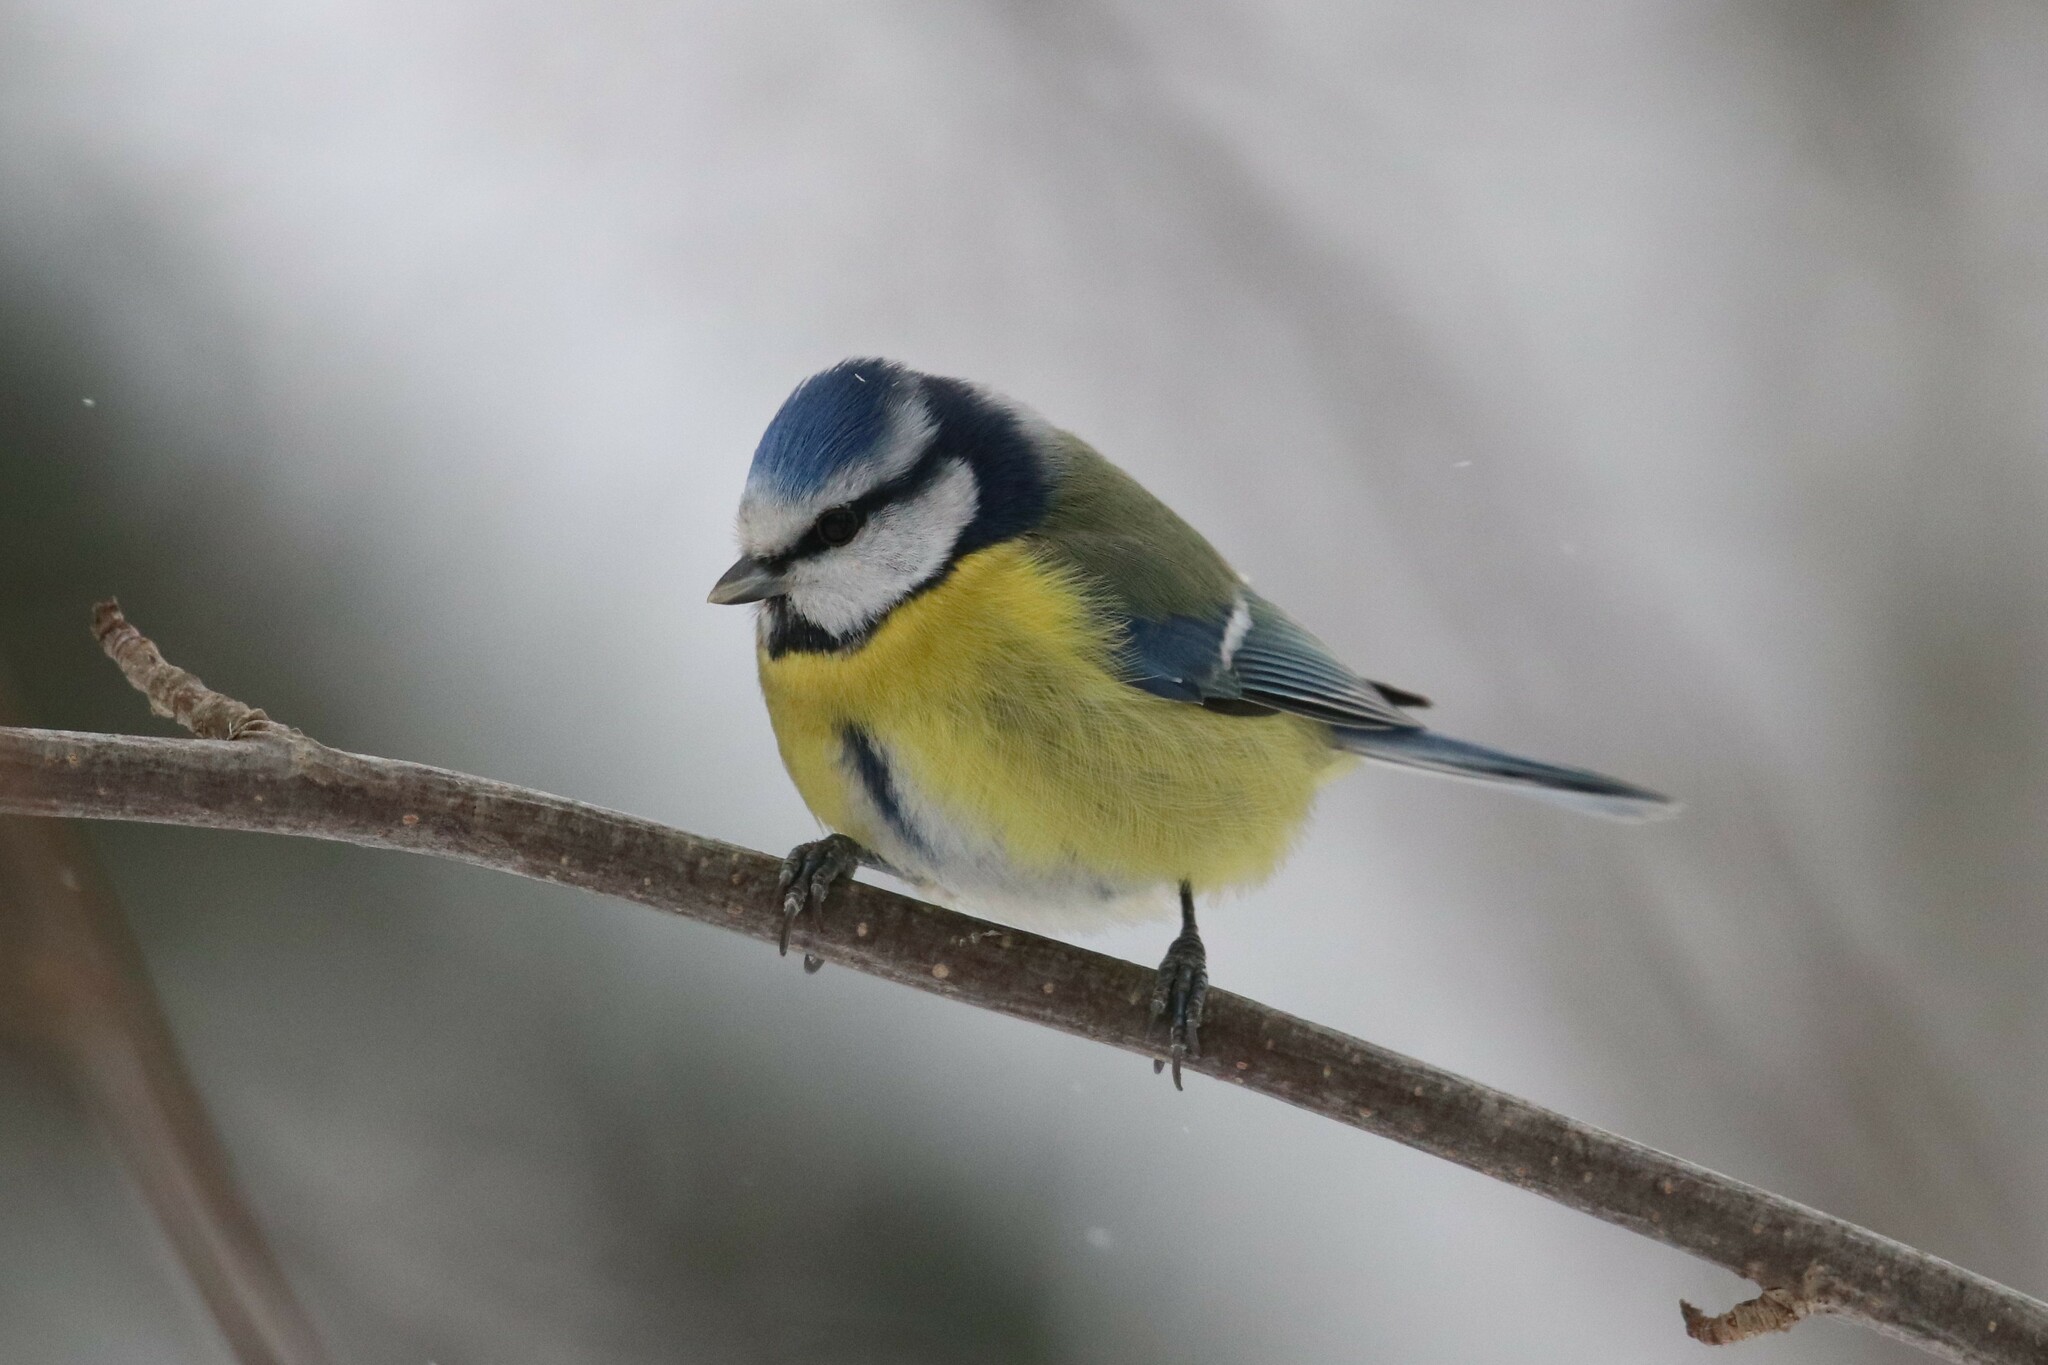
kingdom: Animalia
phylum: Chordata
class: Aves
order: Passeriformes
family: Paridae
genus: Cyanistes
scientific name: Cyanistes caeruleus
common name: Eurasian blue tit
